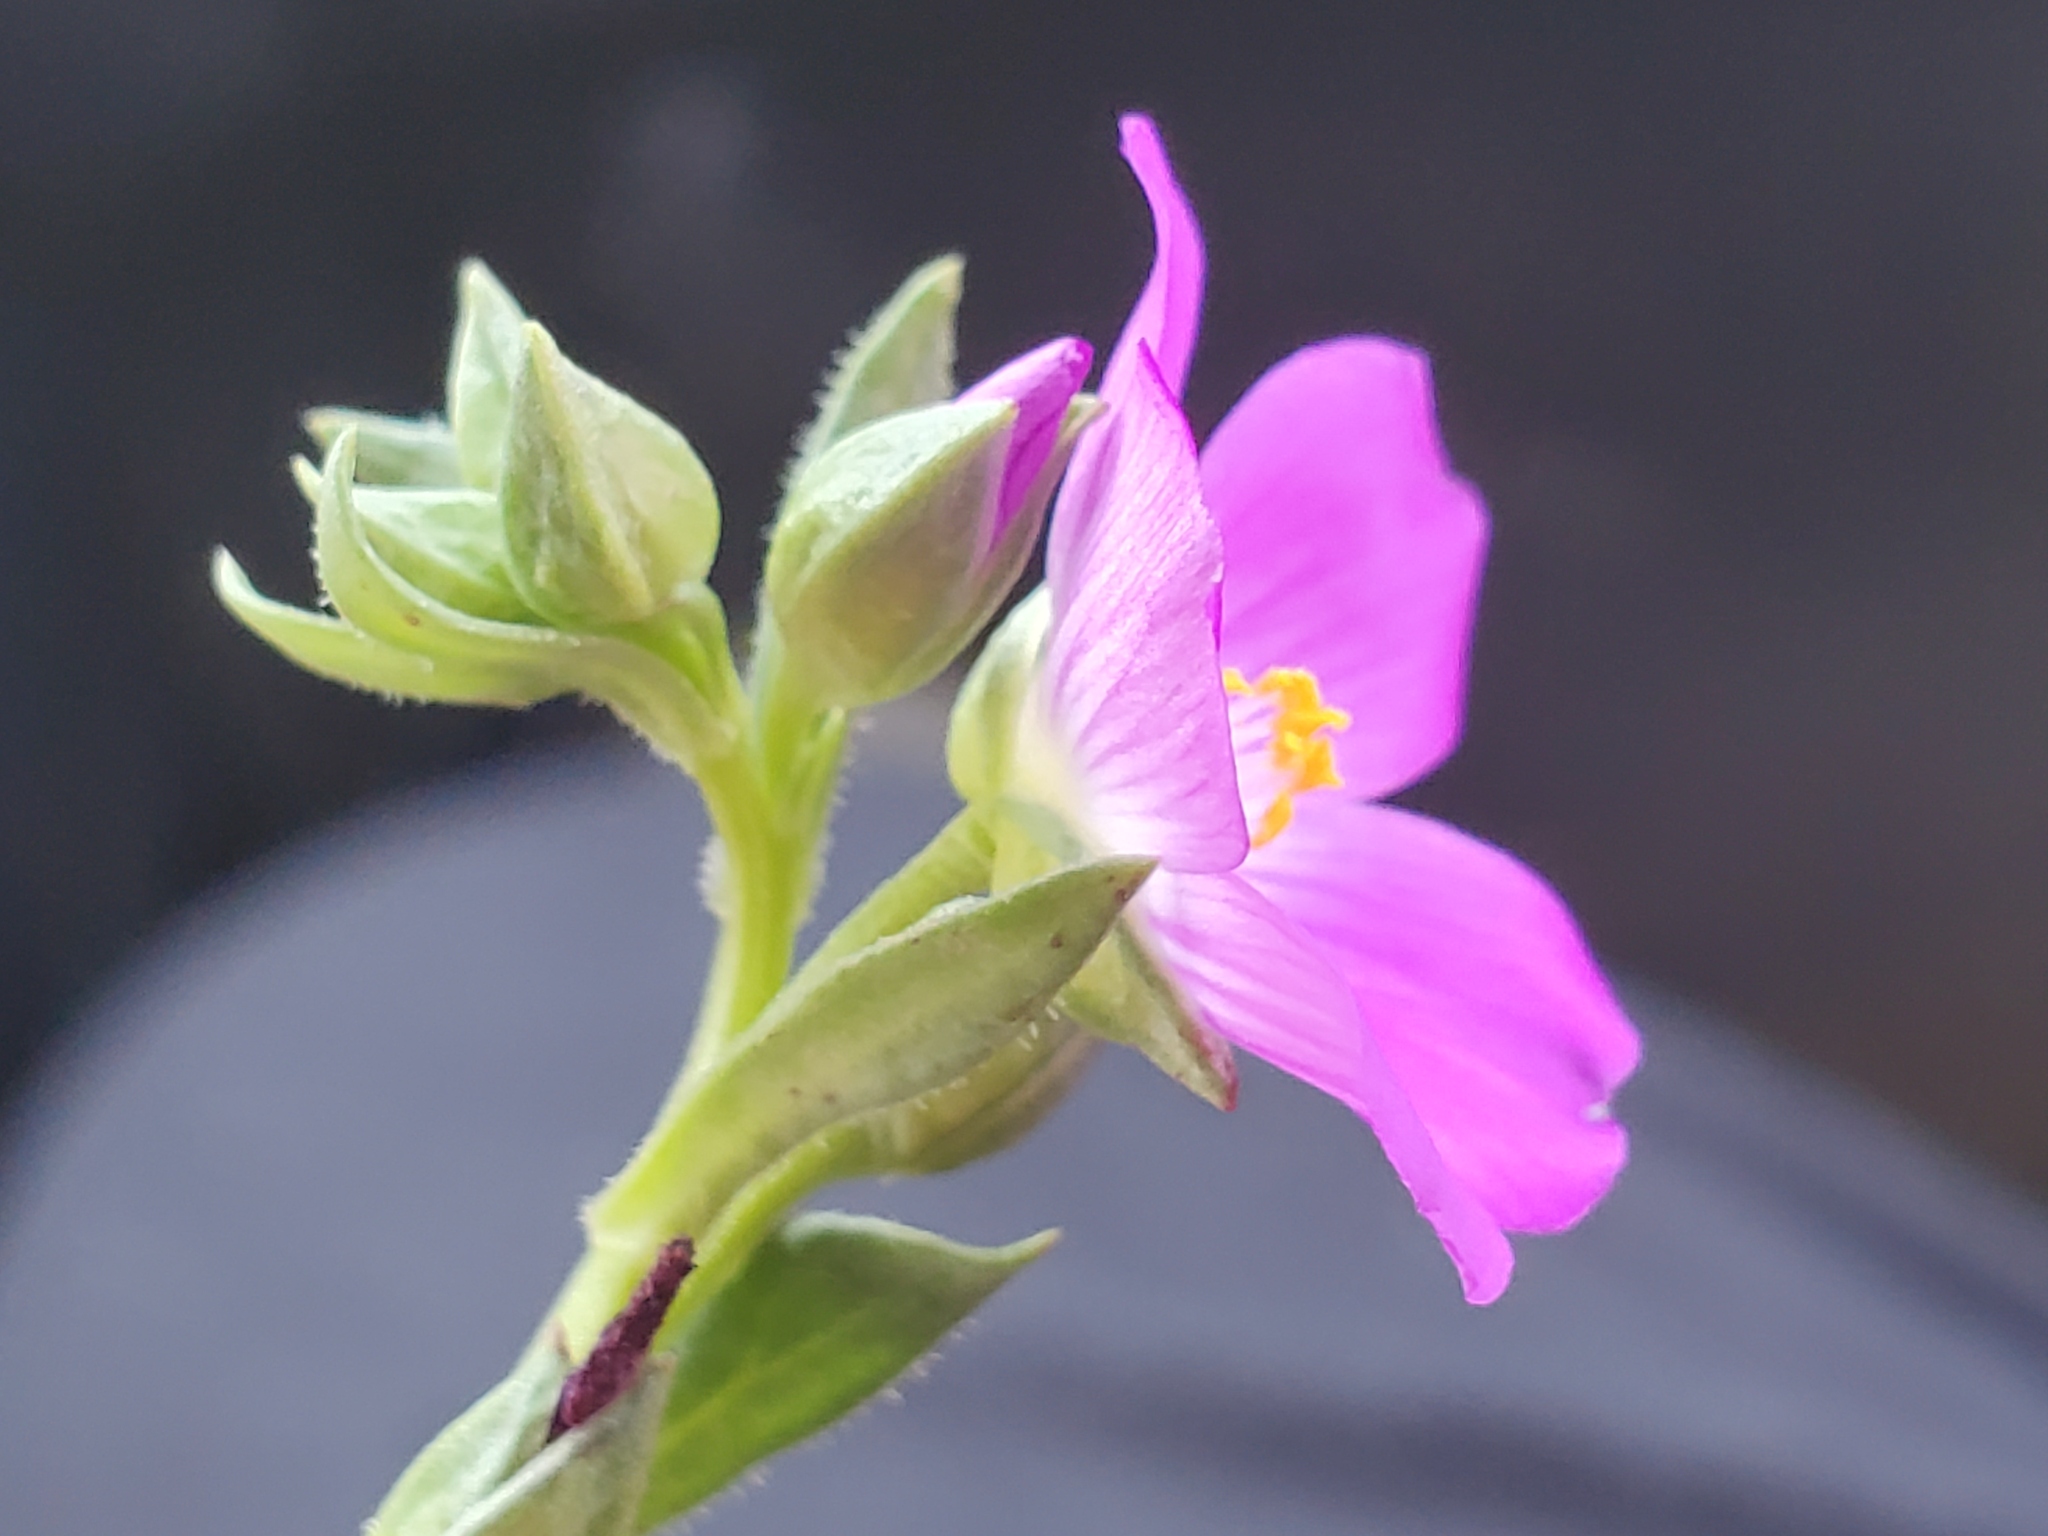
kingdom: Plantae
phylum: Tracheophyta
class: Magnoliopsida
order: Caryophyllales
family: Montiaceae
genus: Calandrinia
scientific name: Calandrinia menziesii
